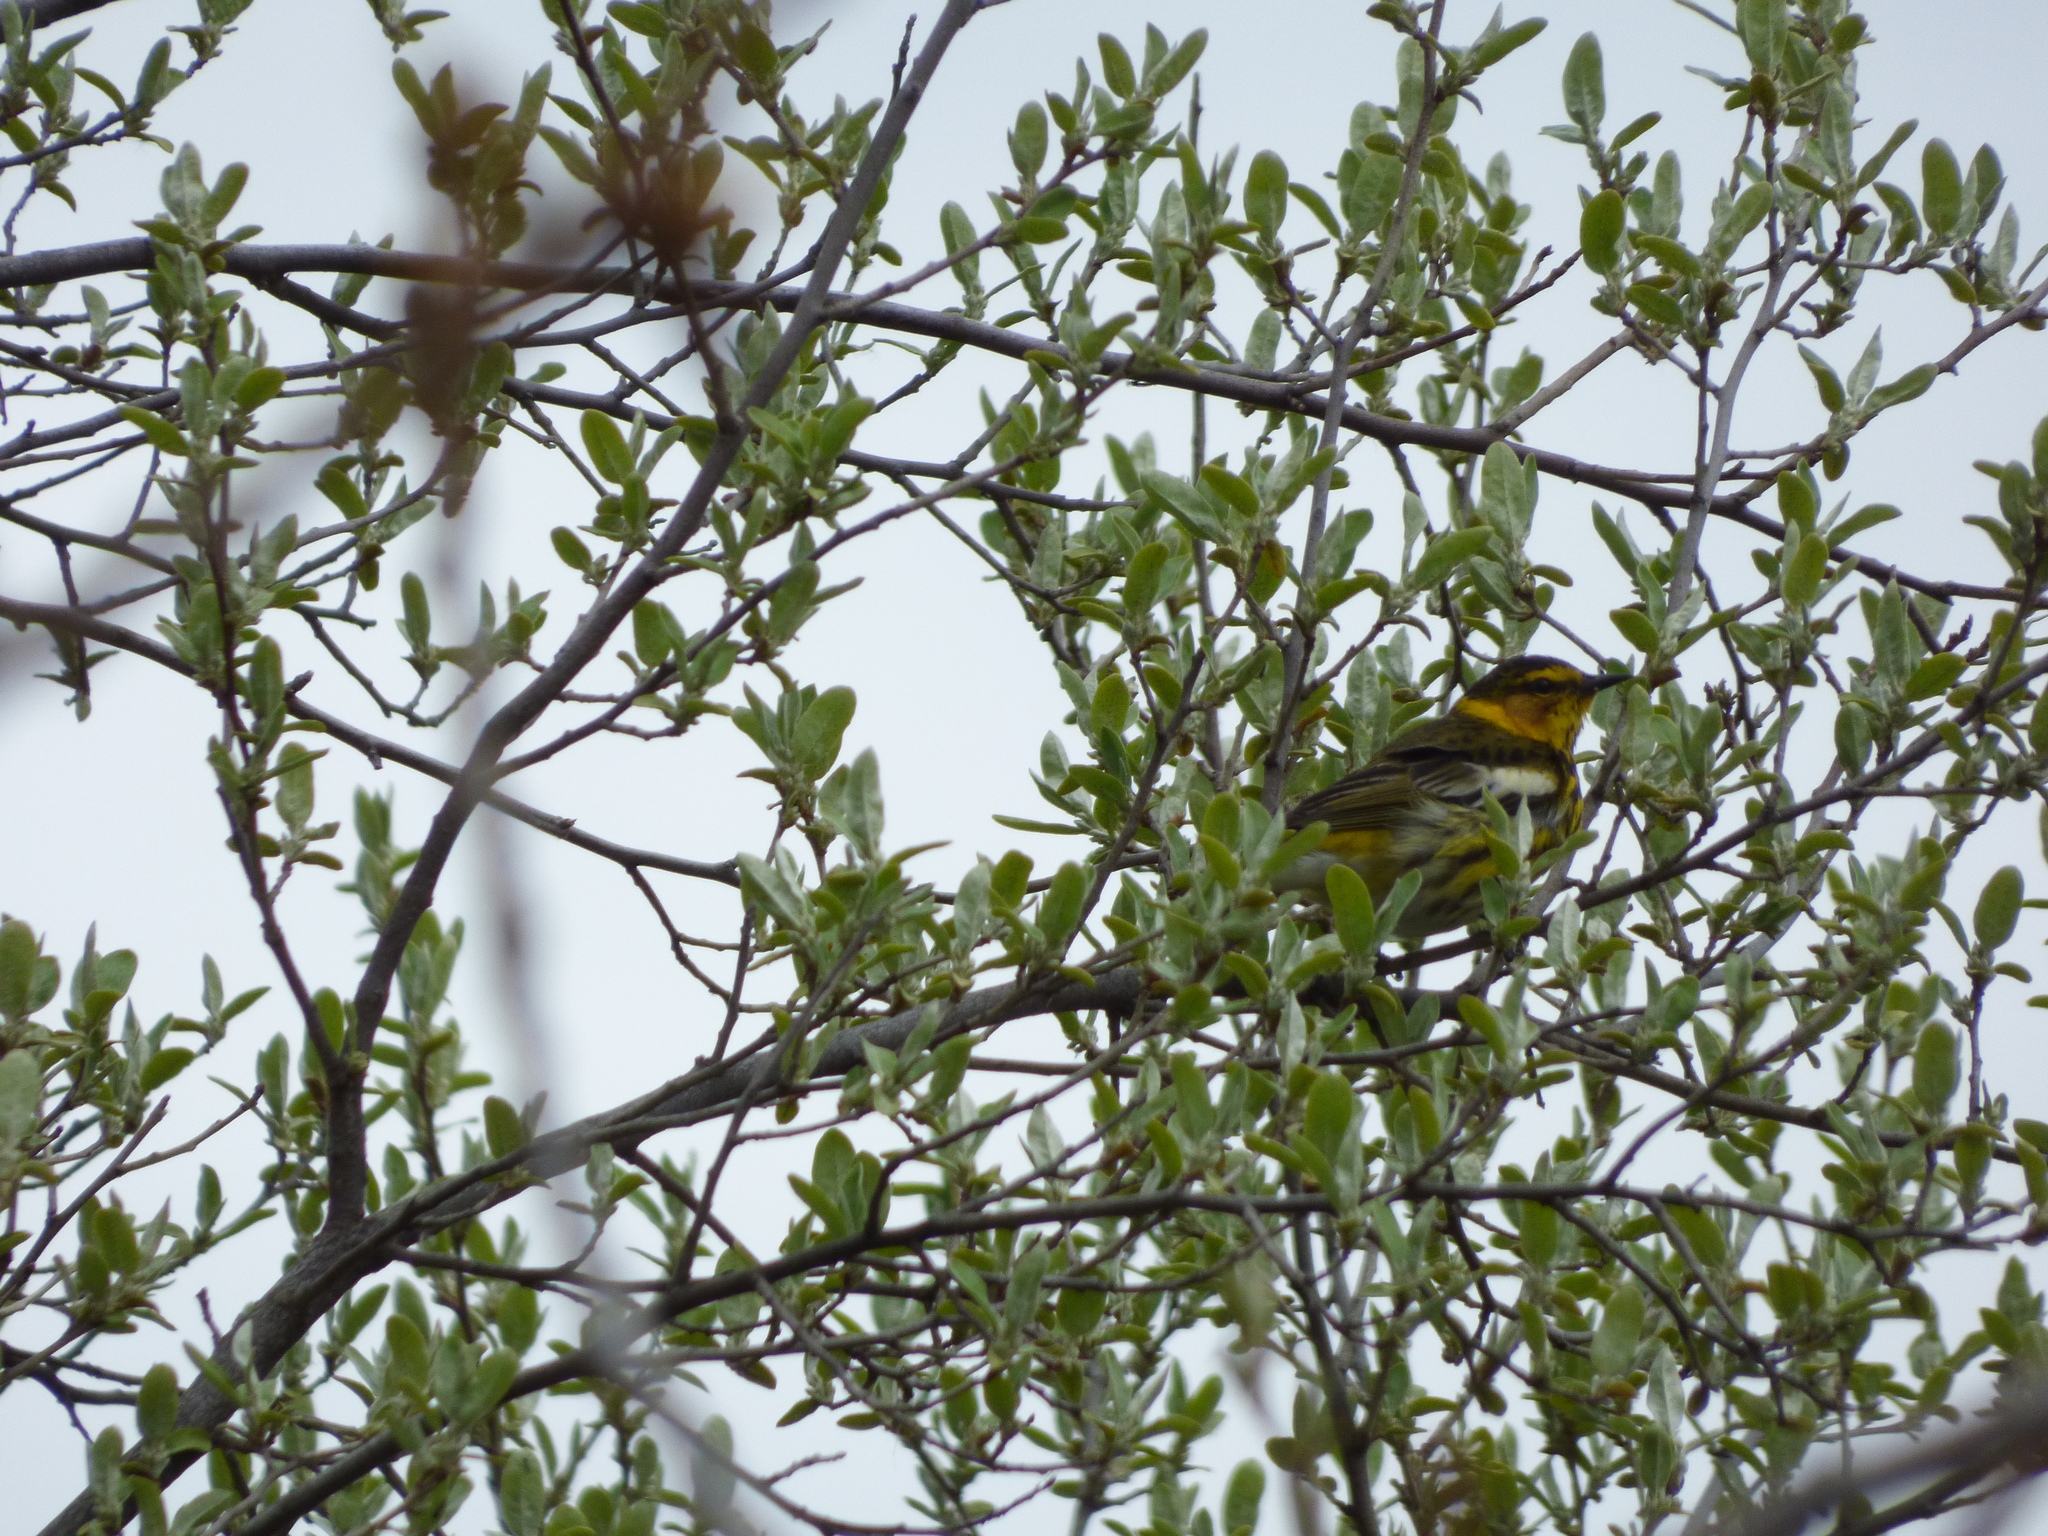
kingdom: Animalia
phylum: Chordata
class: Aves
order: Passeriformes
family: Parulidae
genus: Setophaga
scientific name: Setophaga tigrina
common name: Cape may warbler
